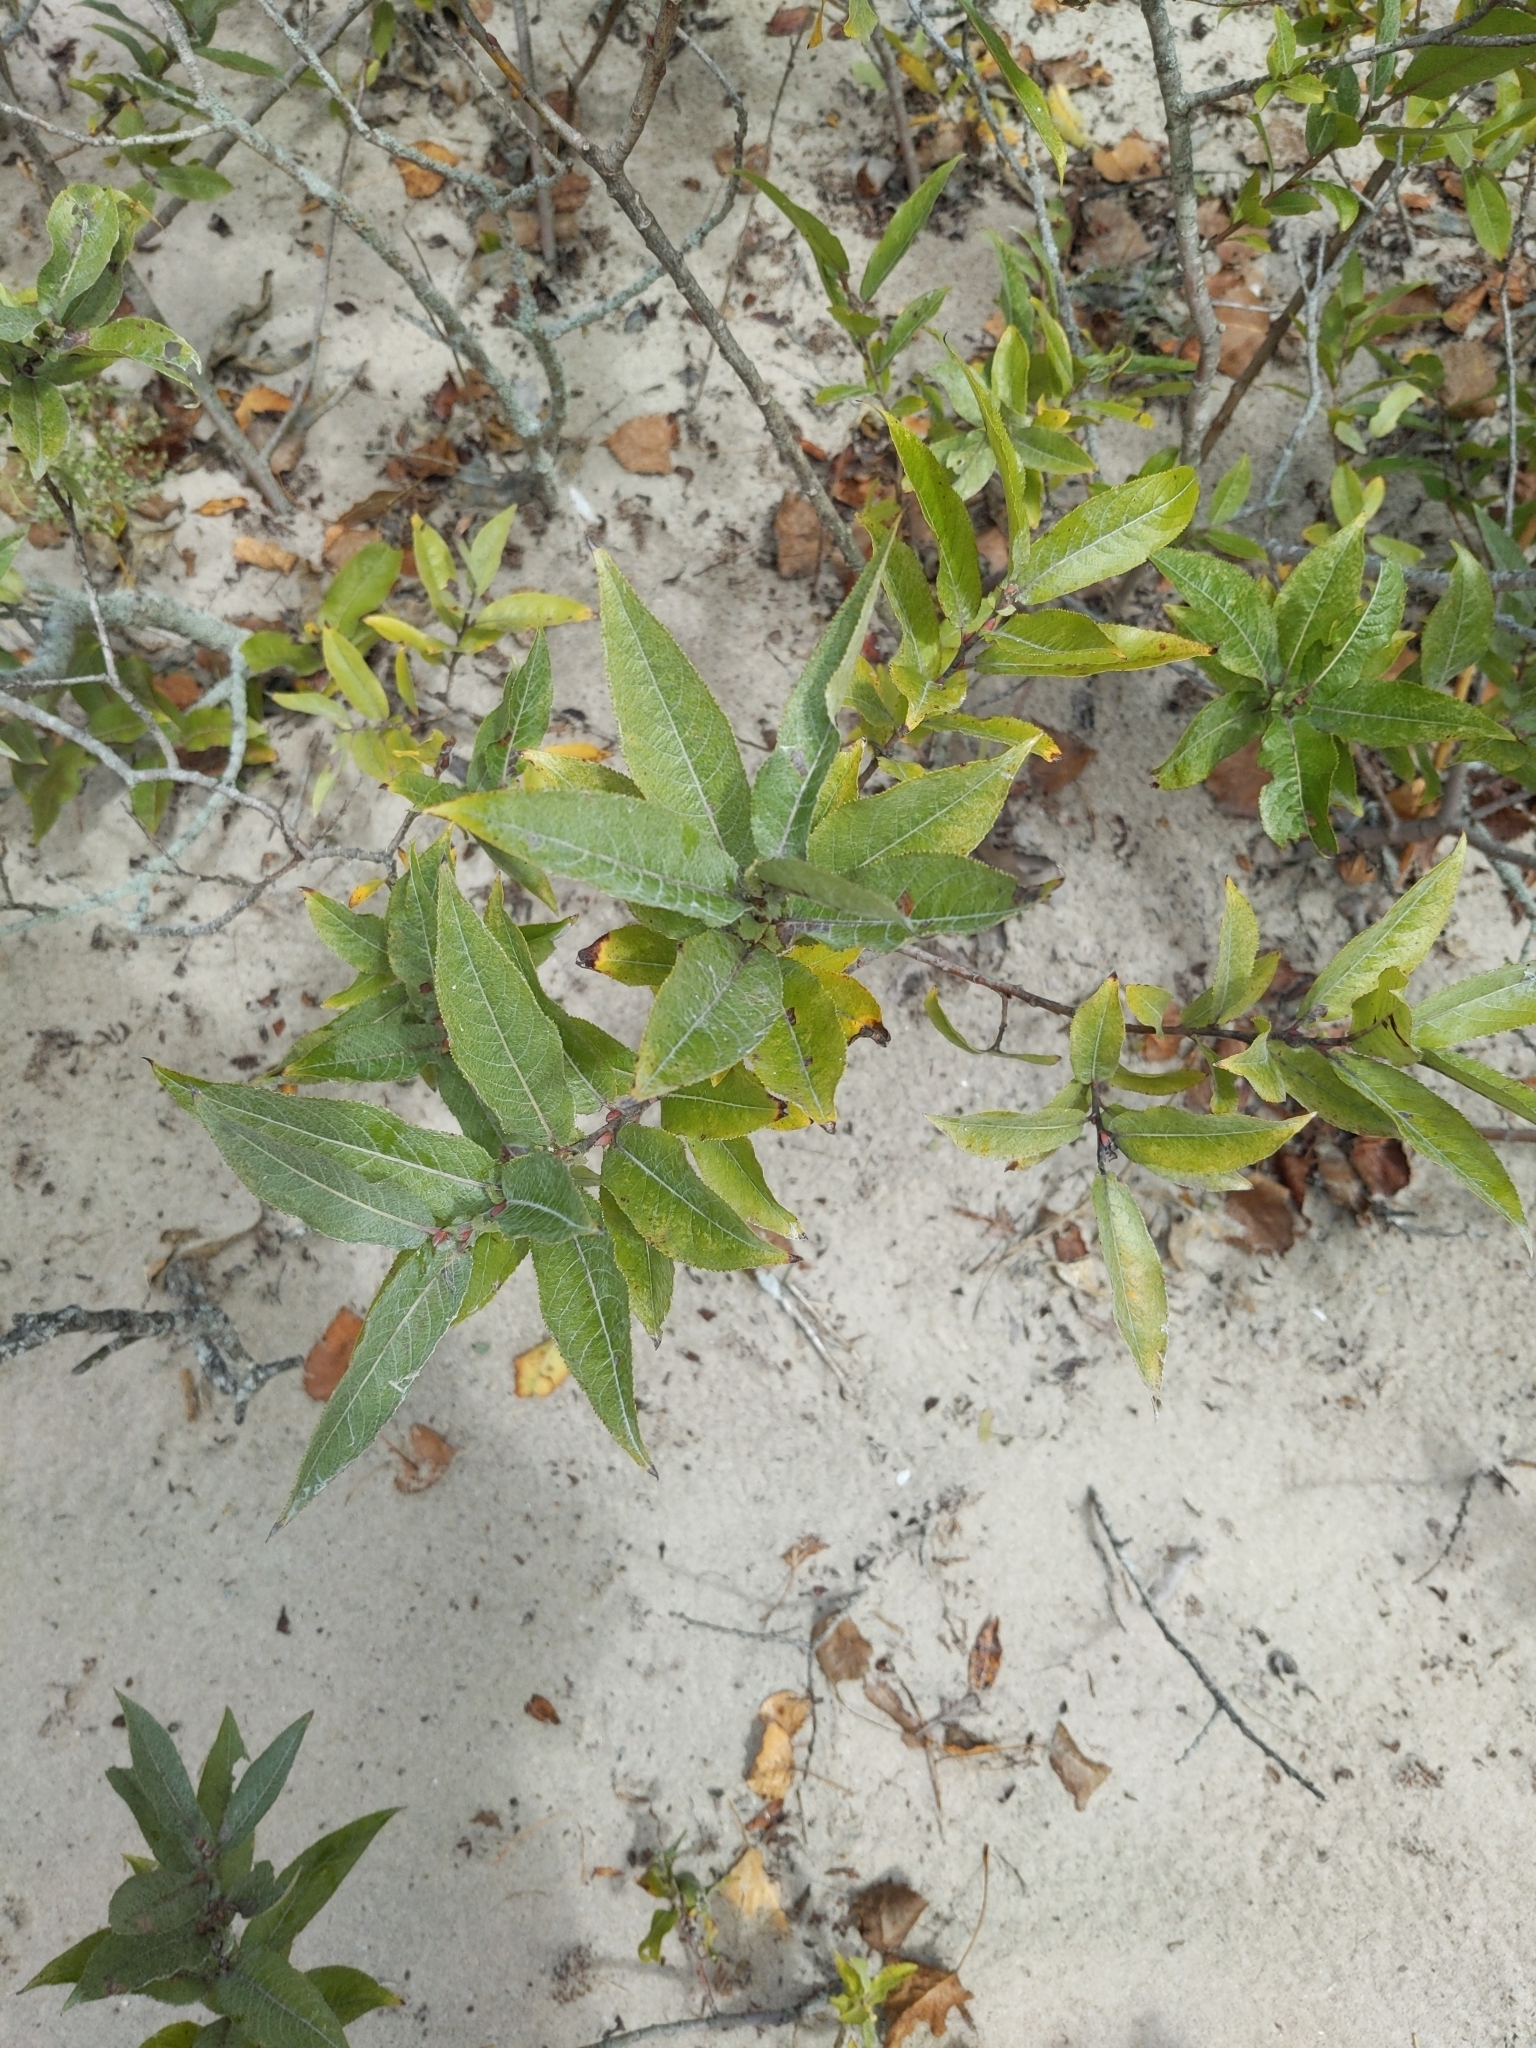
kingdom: Plantae
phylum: Tracheophyta
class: Magnoliopsida
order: Malpighiales
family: Salicaceae
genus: Salix
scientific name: Salix cordata
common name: Heart-leaf willow
